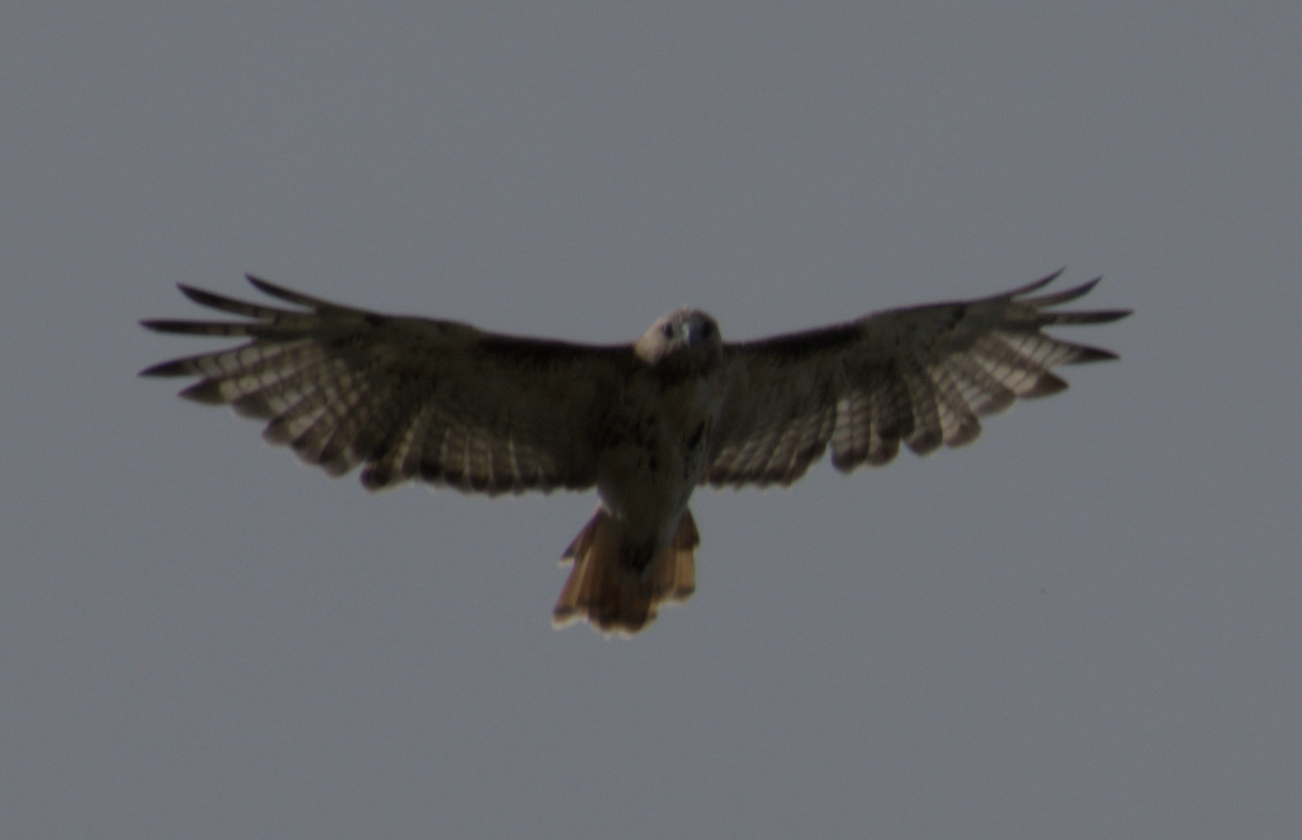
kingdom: Animalia
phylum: Chordata
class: Aves
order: Accipitriformes
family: Accipitridae
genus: Buteo
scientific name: Buteo jamaicensis
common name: Red-tailed hawk
